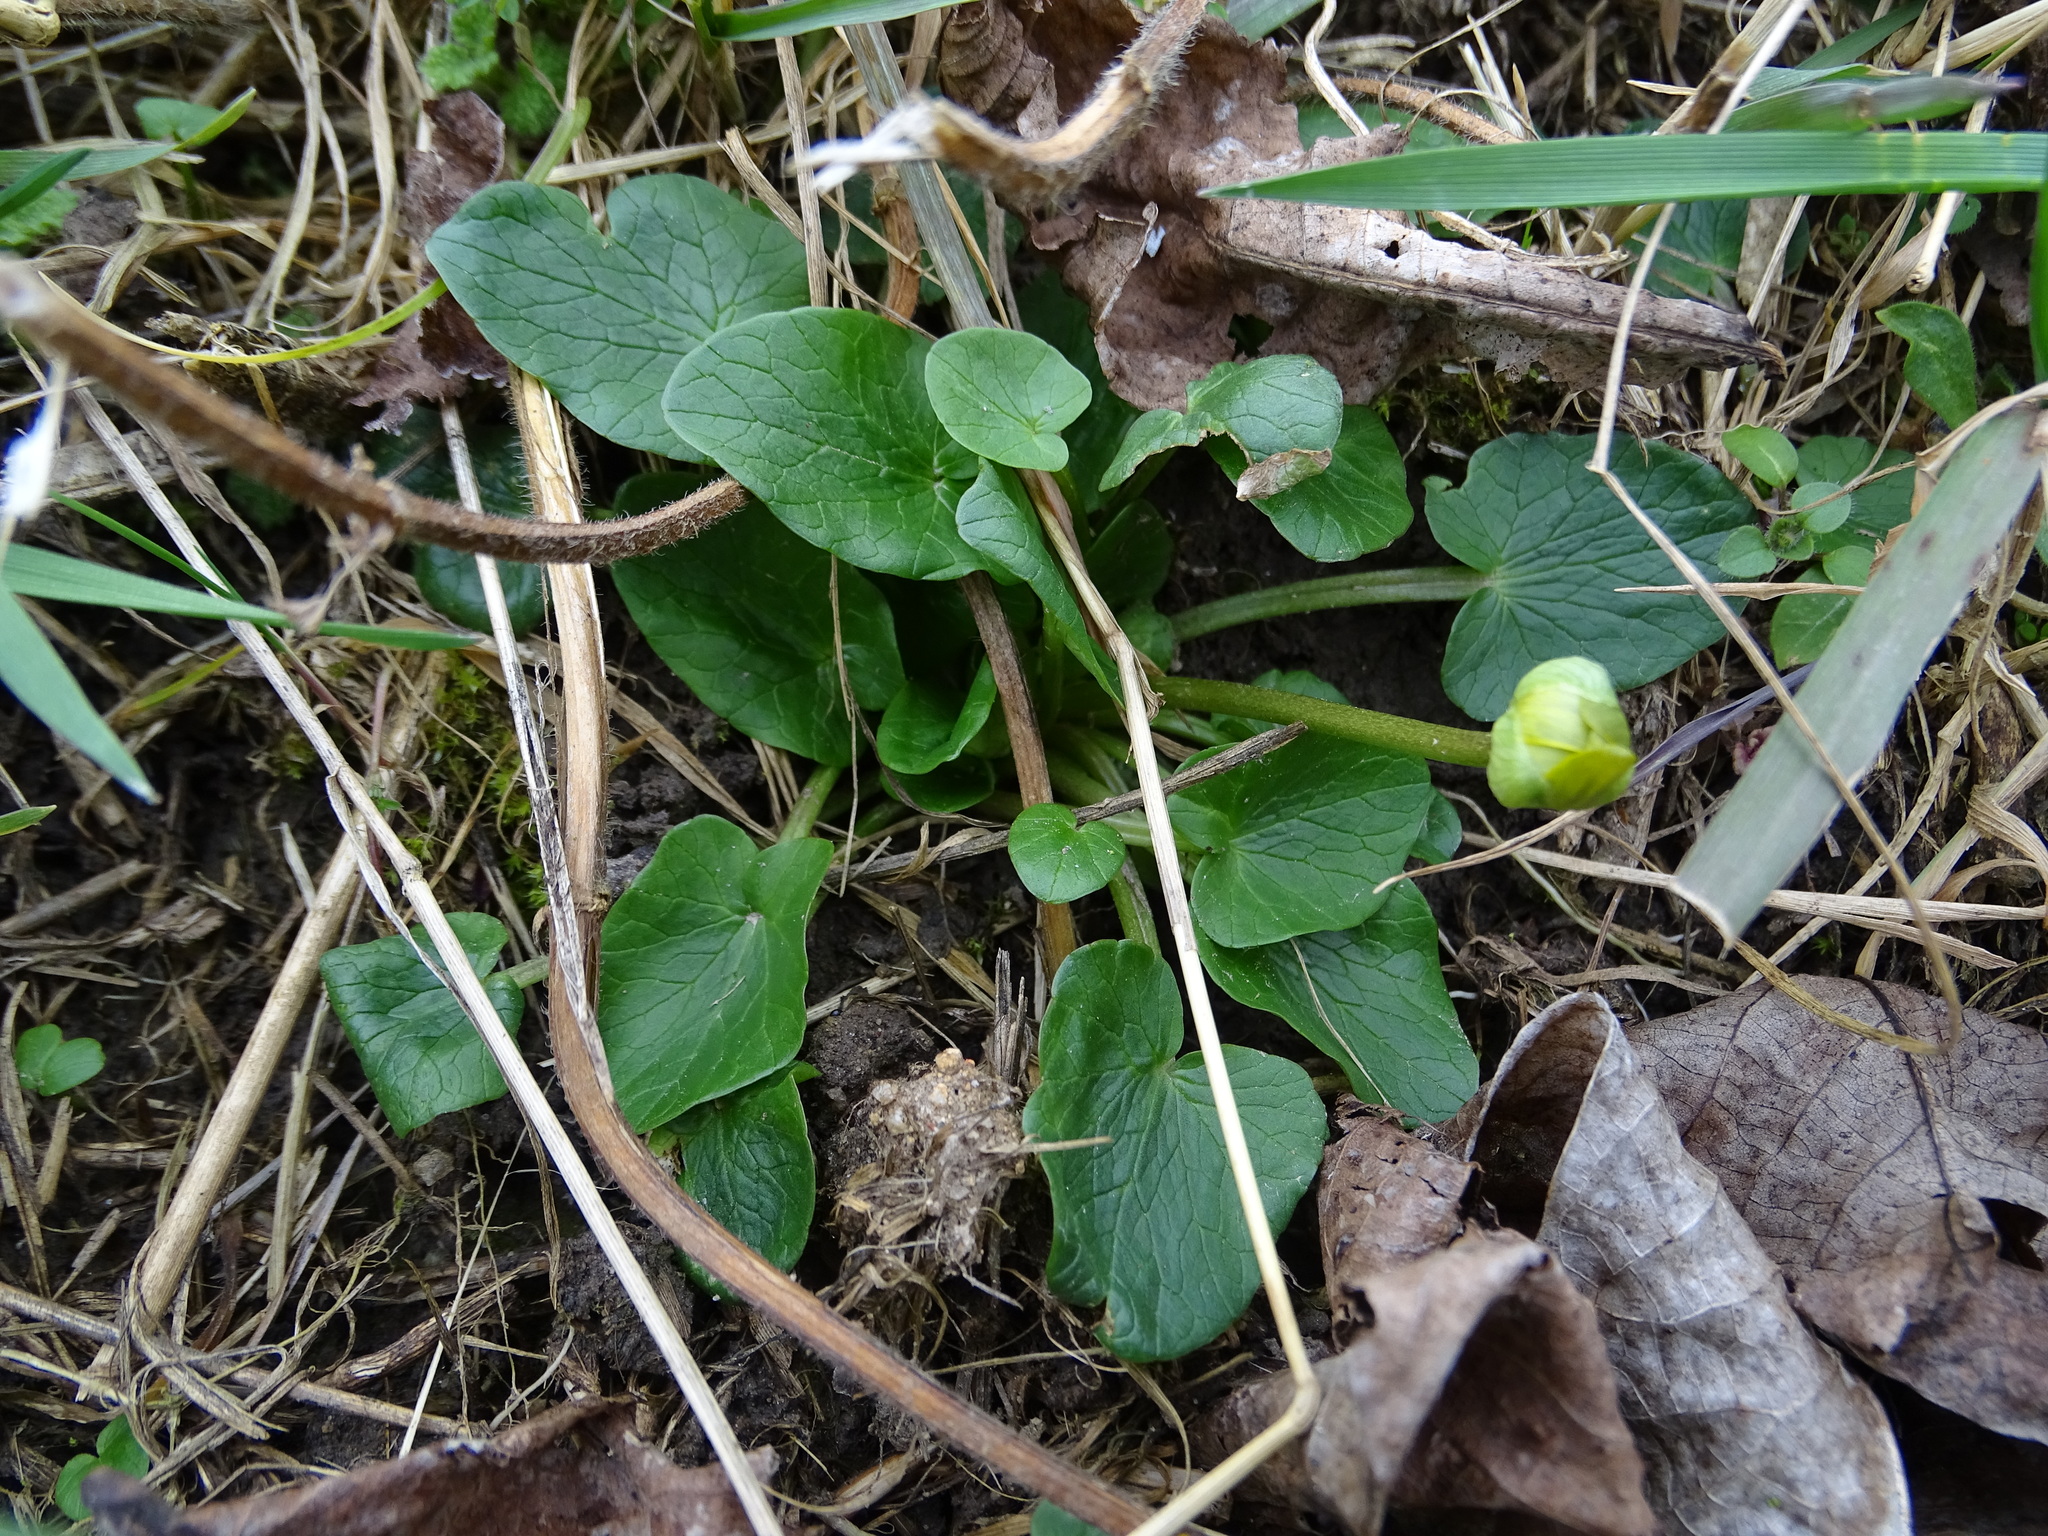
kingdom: Plantae
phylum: Tracheophyta
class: Magnoliopsida
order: Ranunculales
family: Ranunculaceae
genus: Ficaria
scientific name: Ficaria
